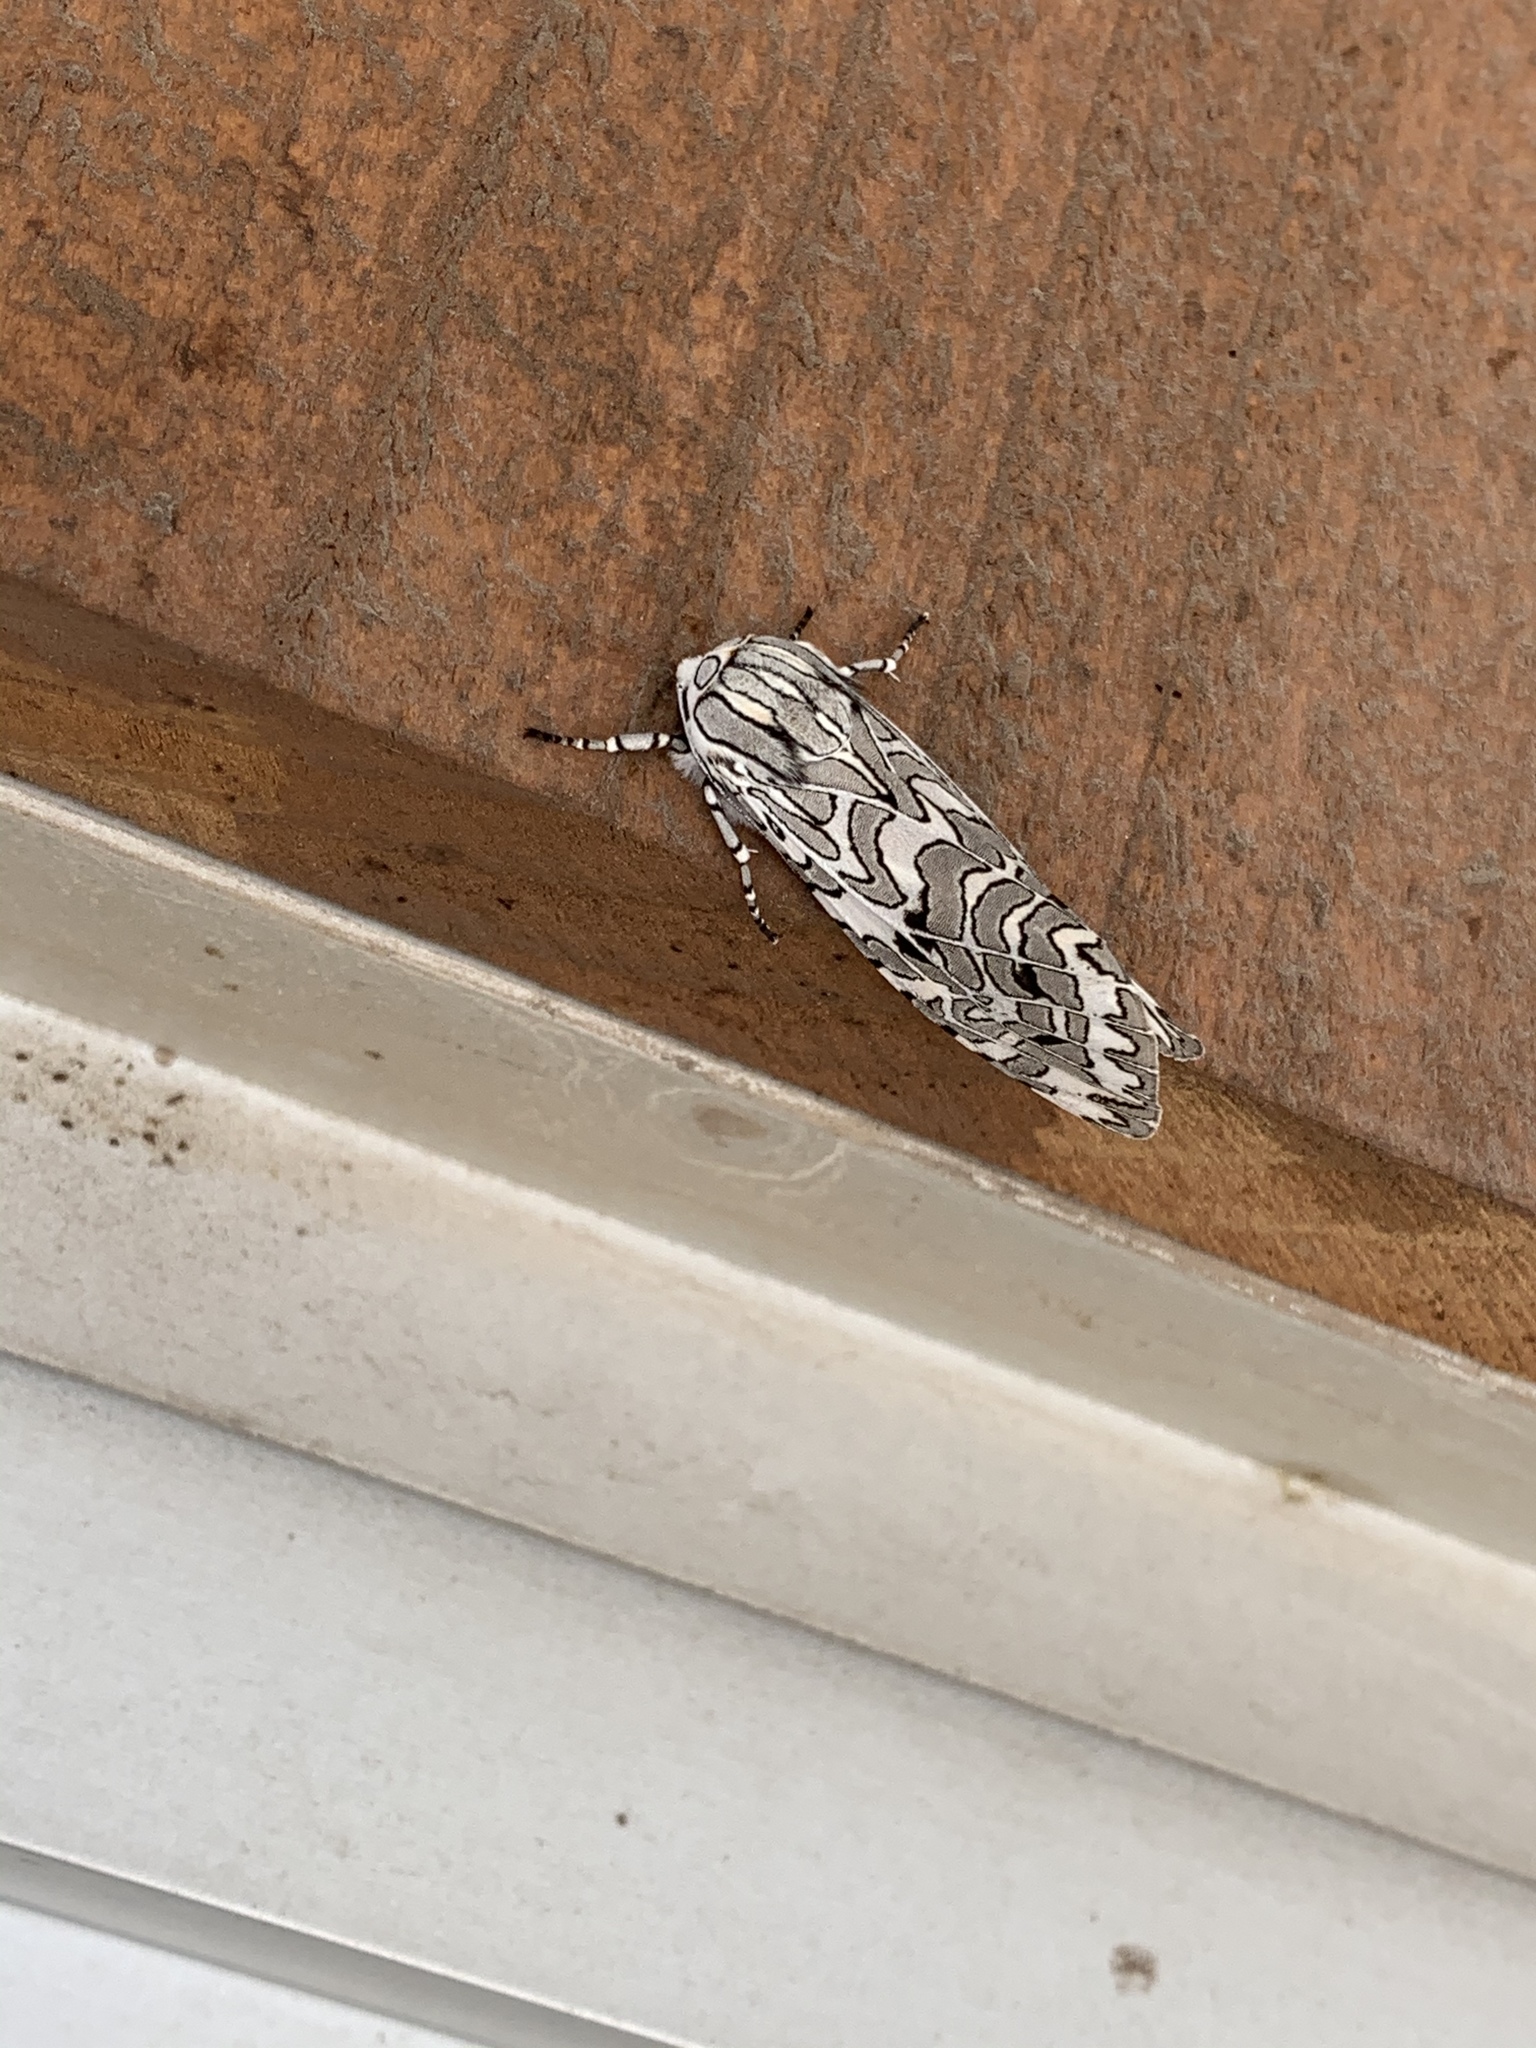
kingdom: Animalia
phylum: Arthropoda
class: Insecta
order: Lepidoptera
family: Erebidae
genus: Arachnis
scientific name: Arachnis picta
